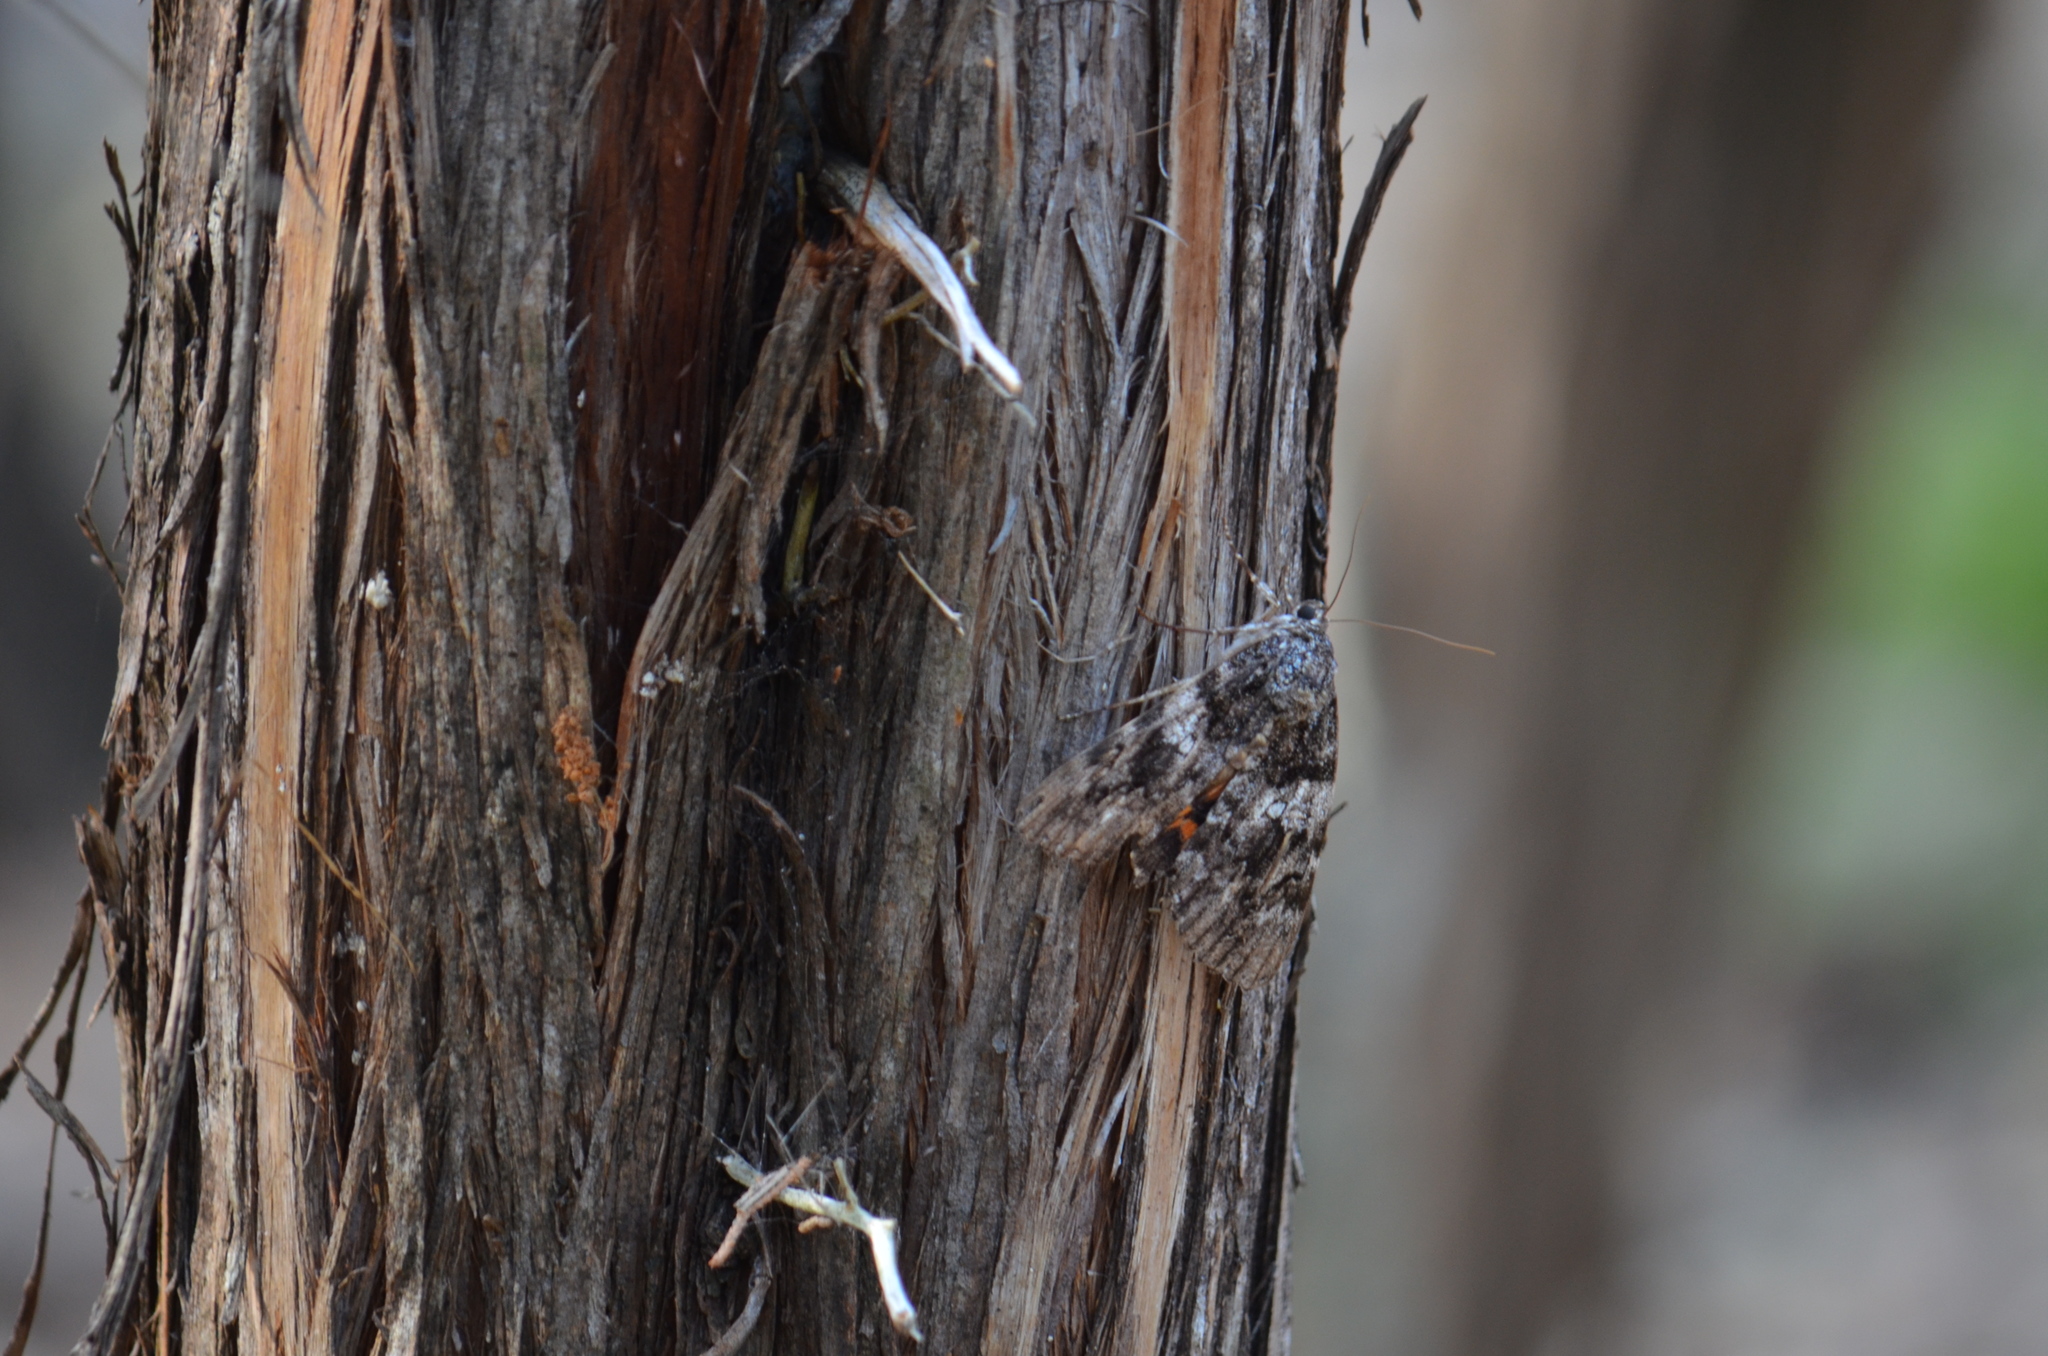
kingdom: Animalia
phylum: Arthropoda
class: Insecta
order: Lepidoptera
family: Erebidae
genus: Catocala
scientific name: Catocala ilia
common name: Ilia underwing
